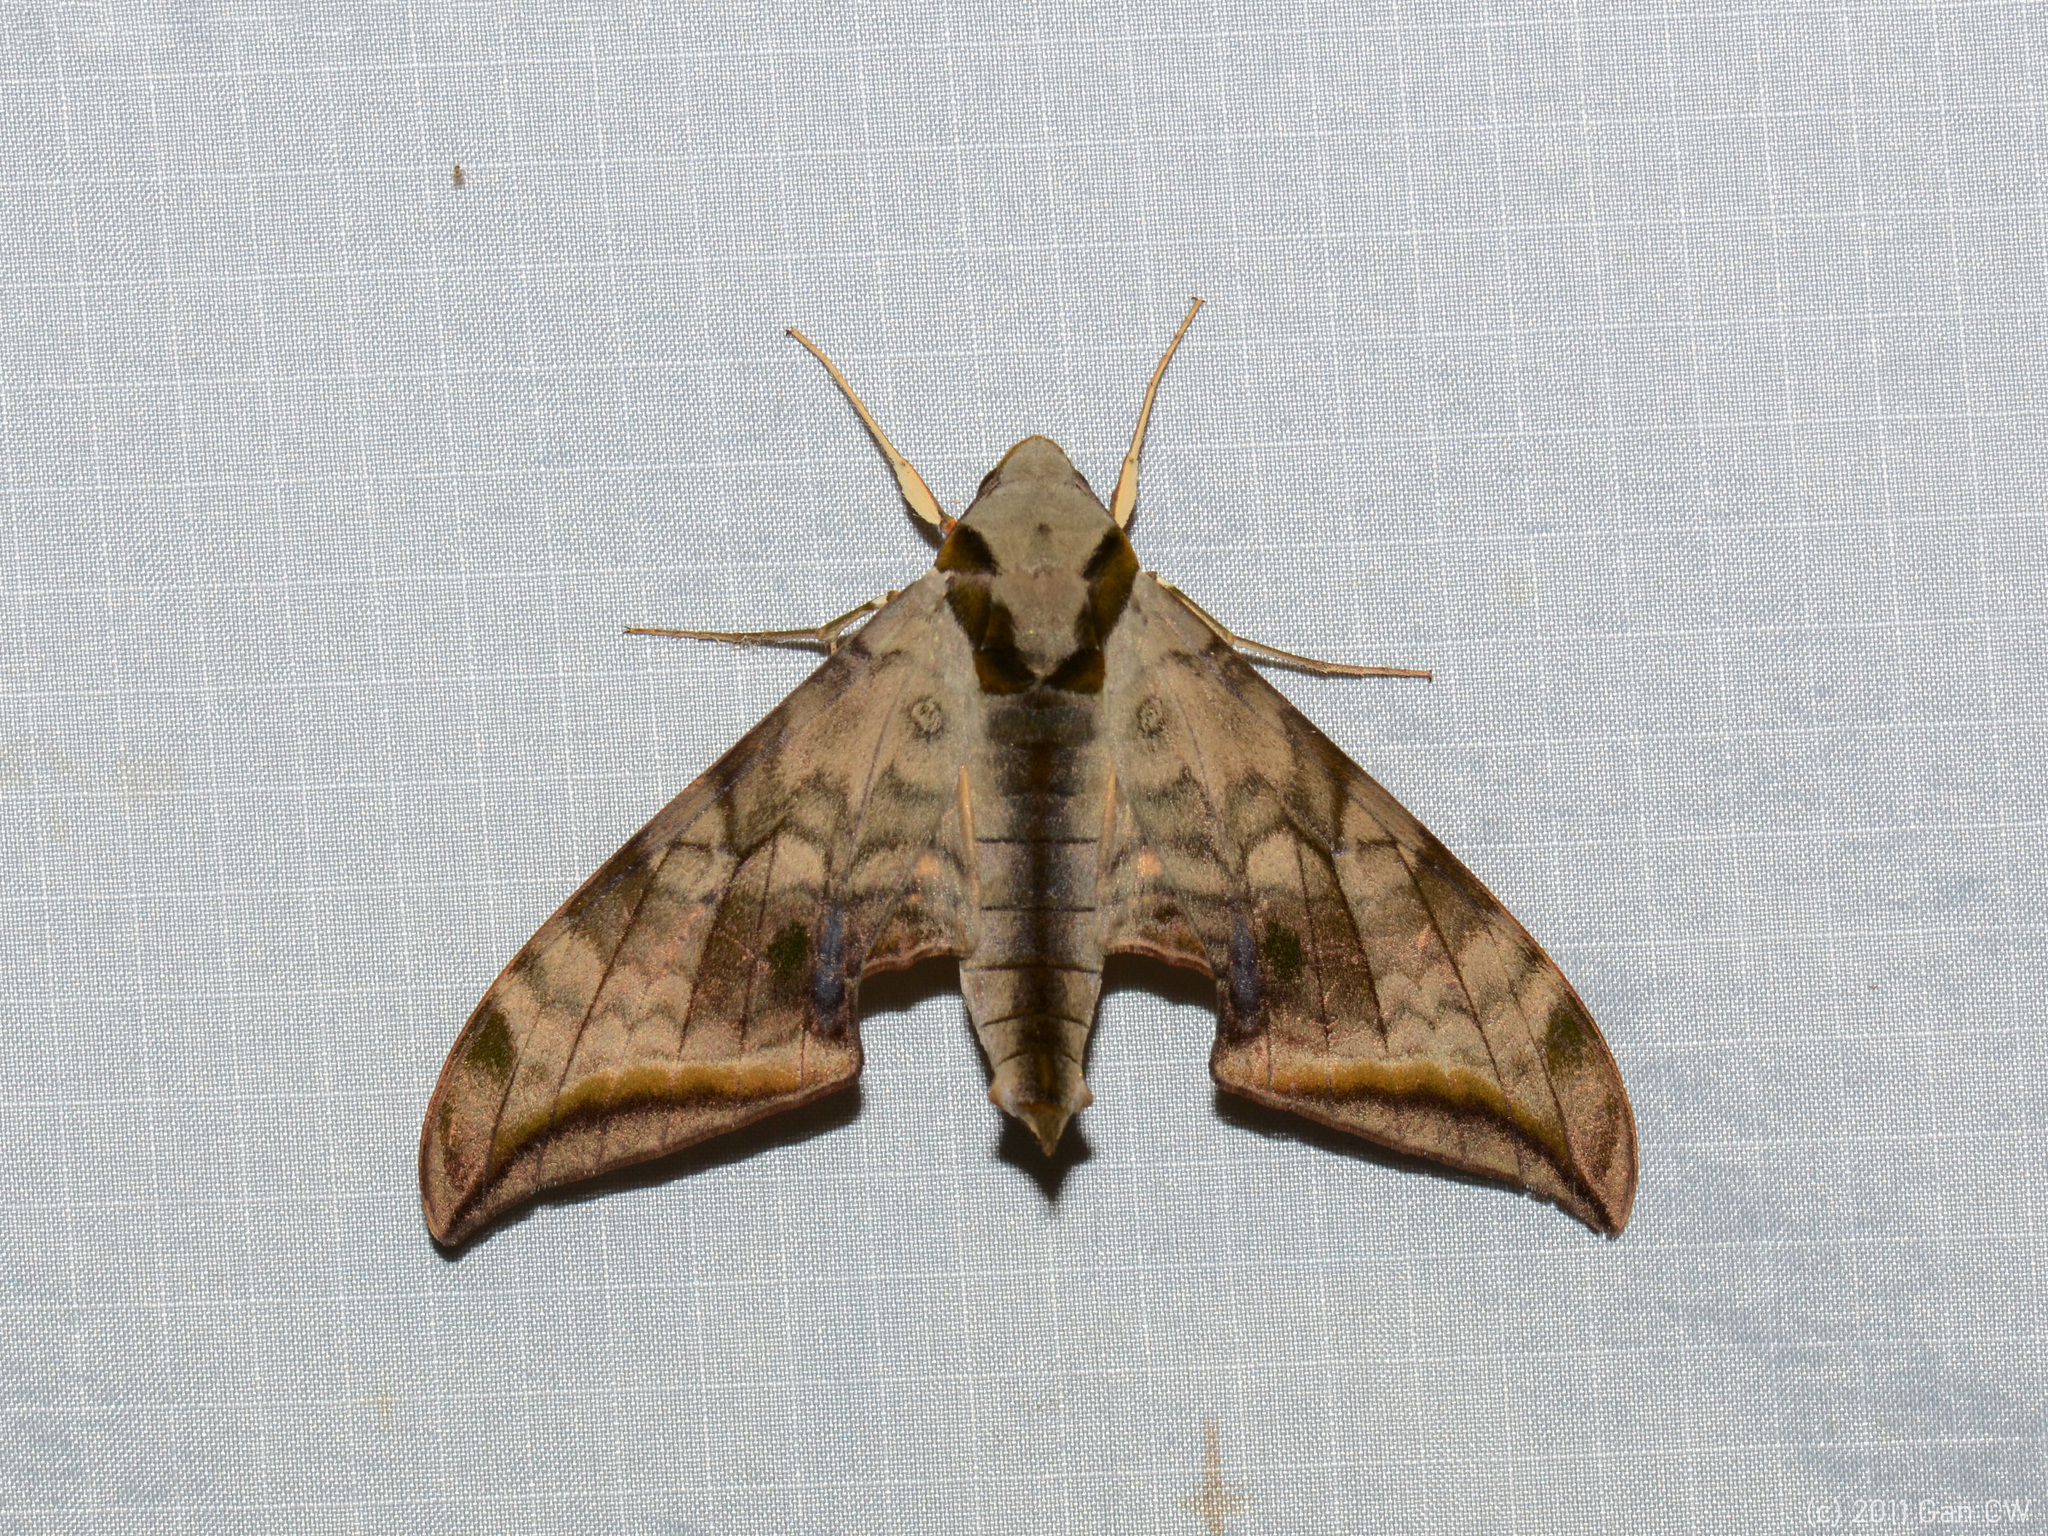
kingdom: Animalia
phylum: Arthropoda
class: Insecta
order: Lepidoptera
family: Sphingidae
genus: Ambulyx
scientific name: Ambulyx immaculata
